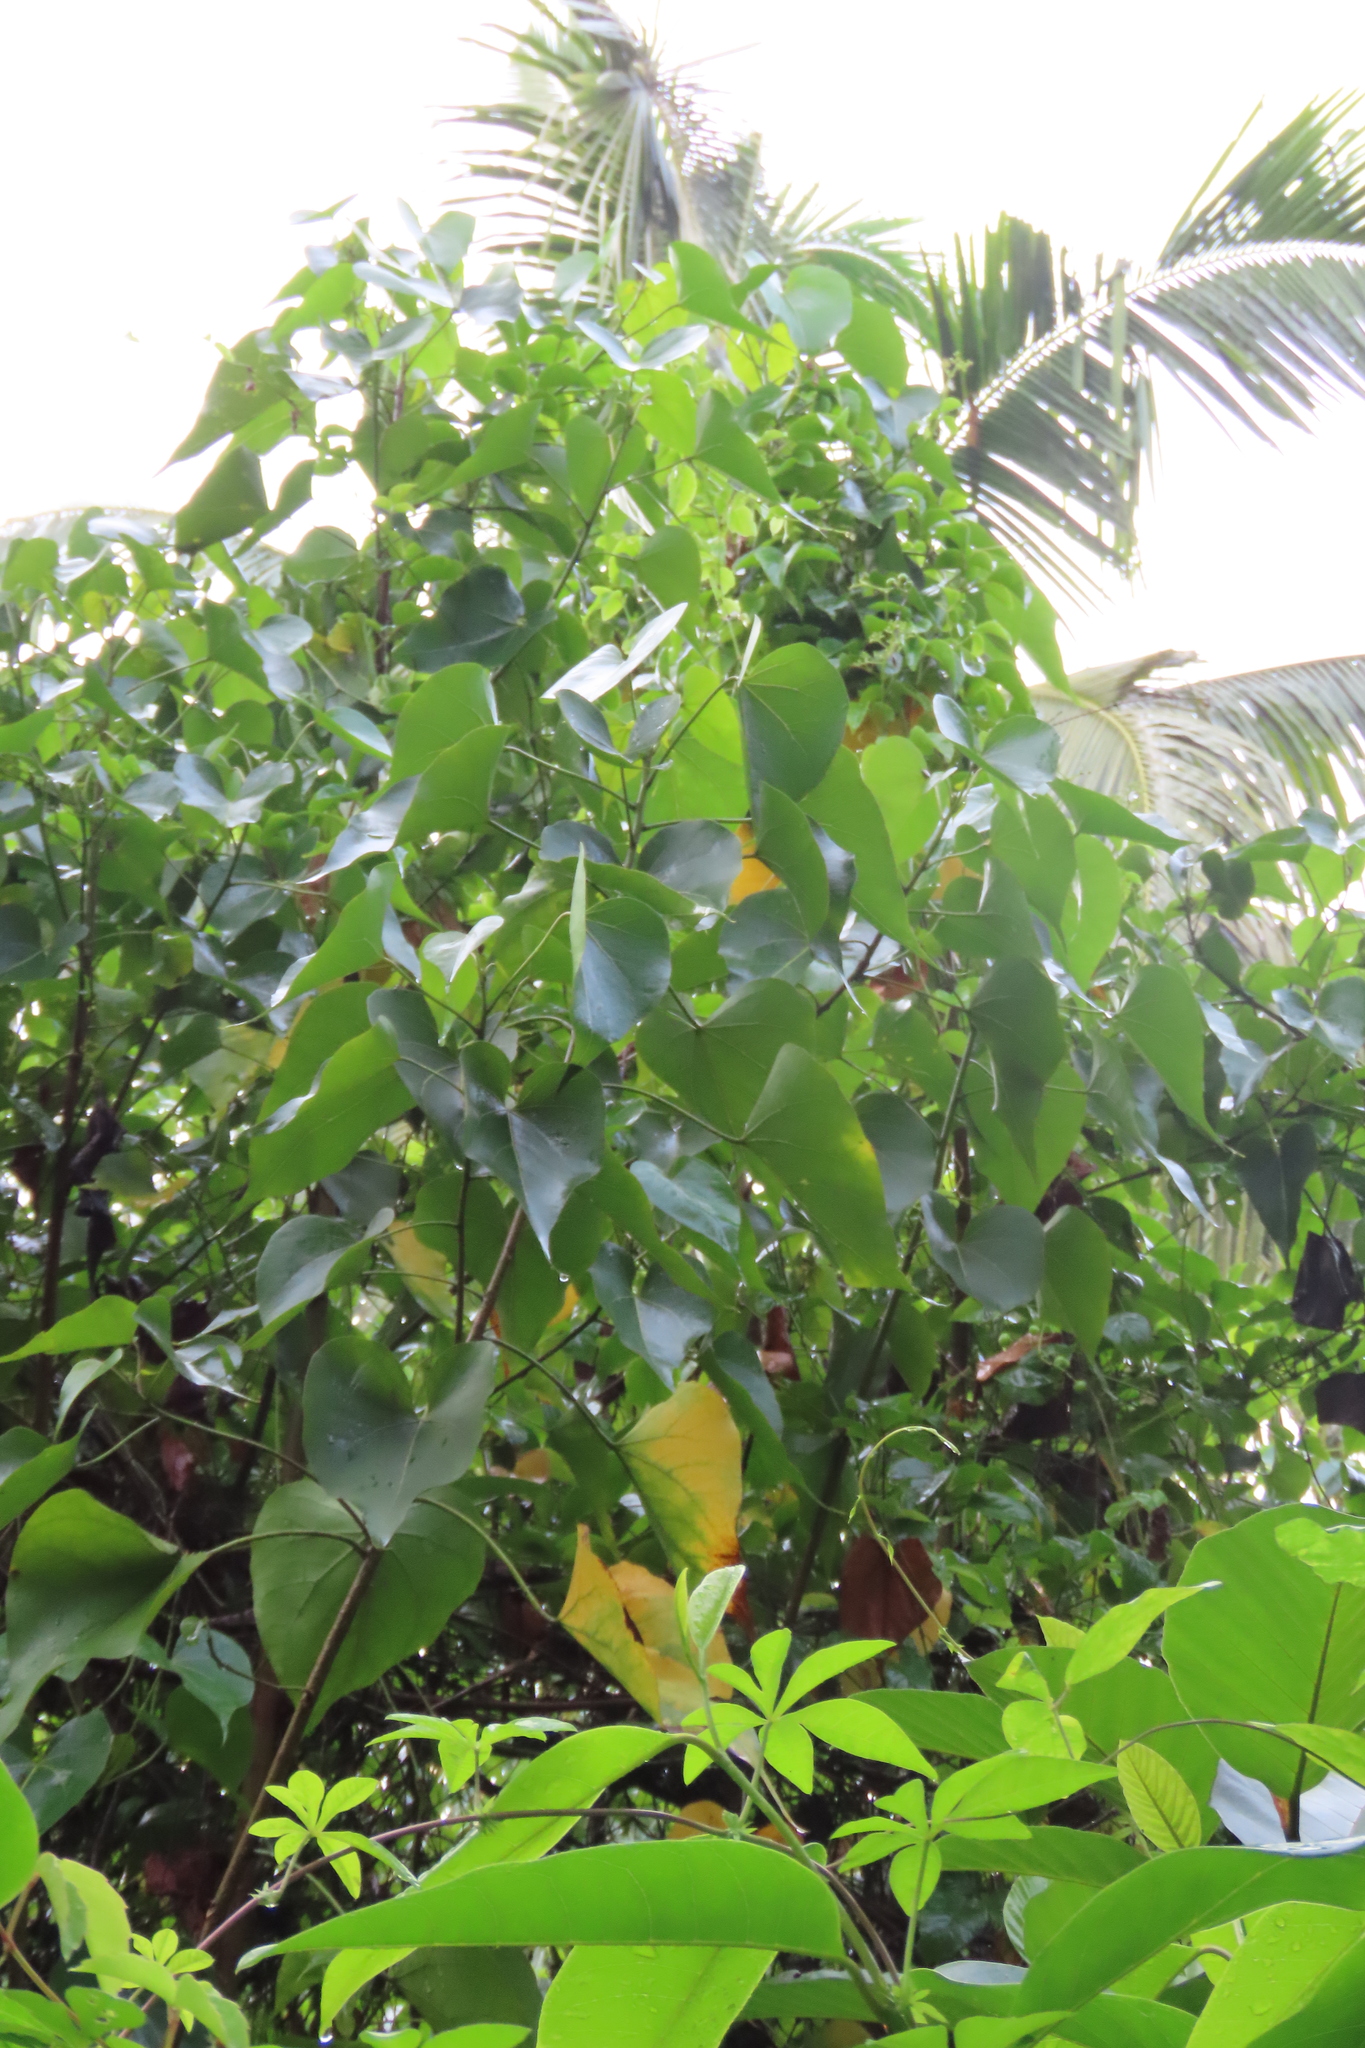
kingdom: Plantae
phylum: Tracheophyta
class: Magnoliopsida
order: Malvales
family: Malvaceae
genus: Thespesia
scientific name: Thespesia populnea
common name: Seaside mahoe
